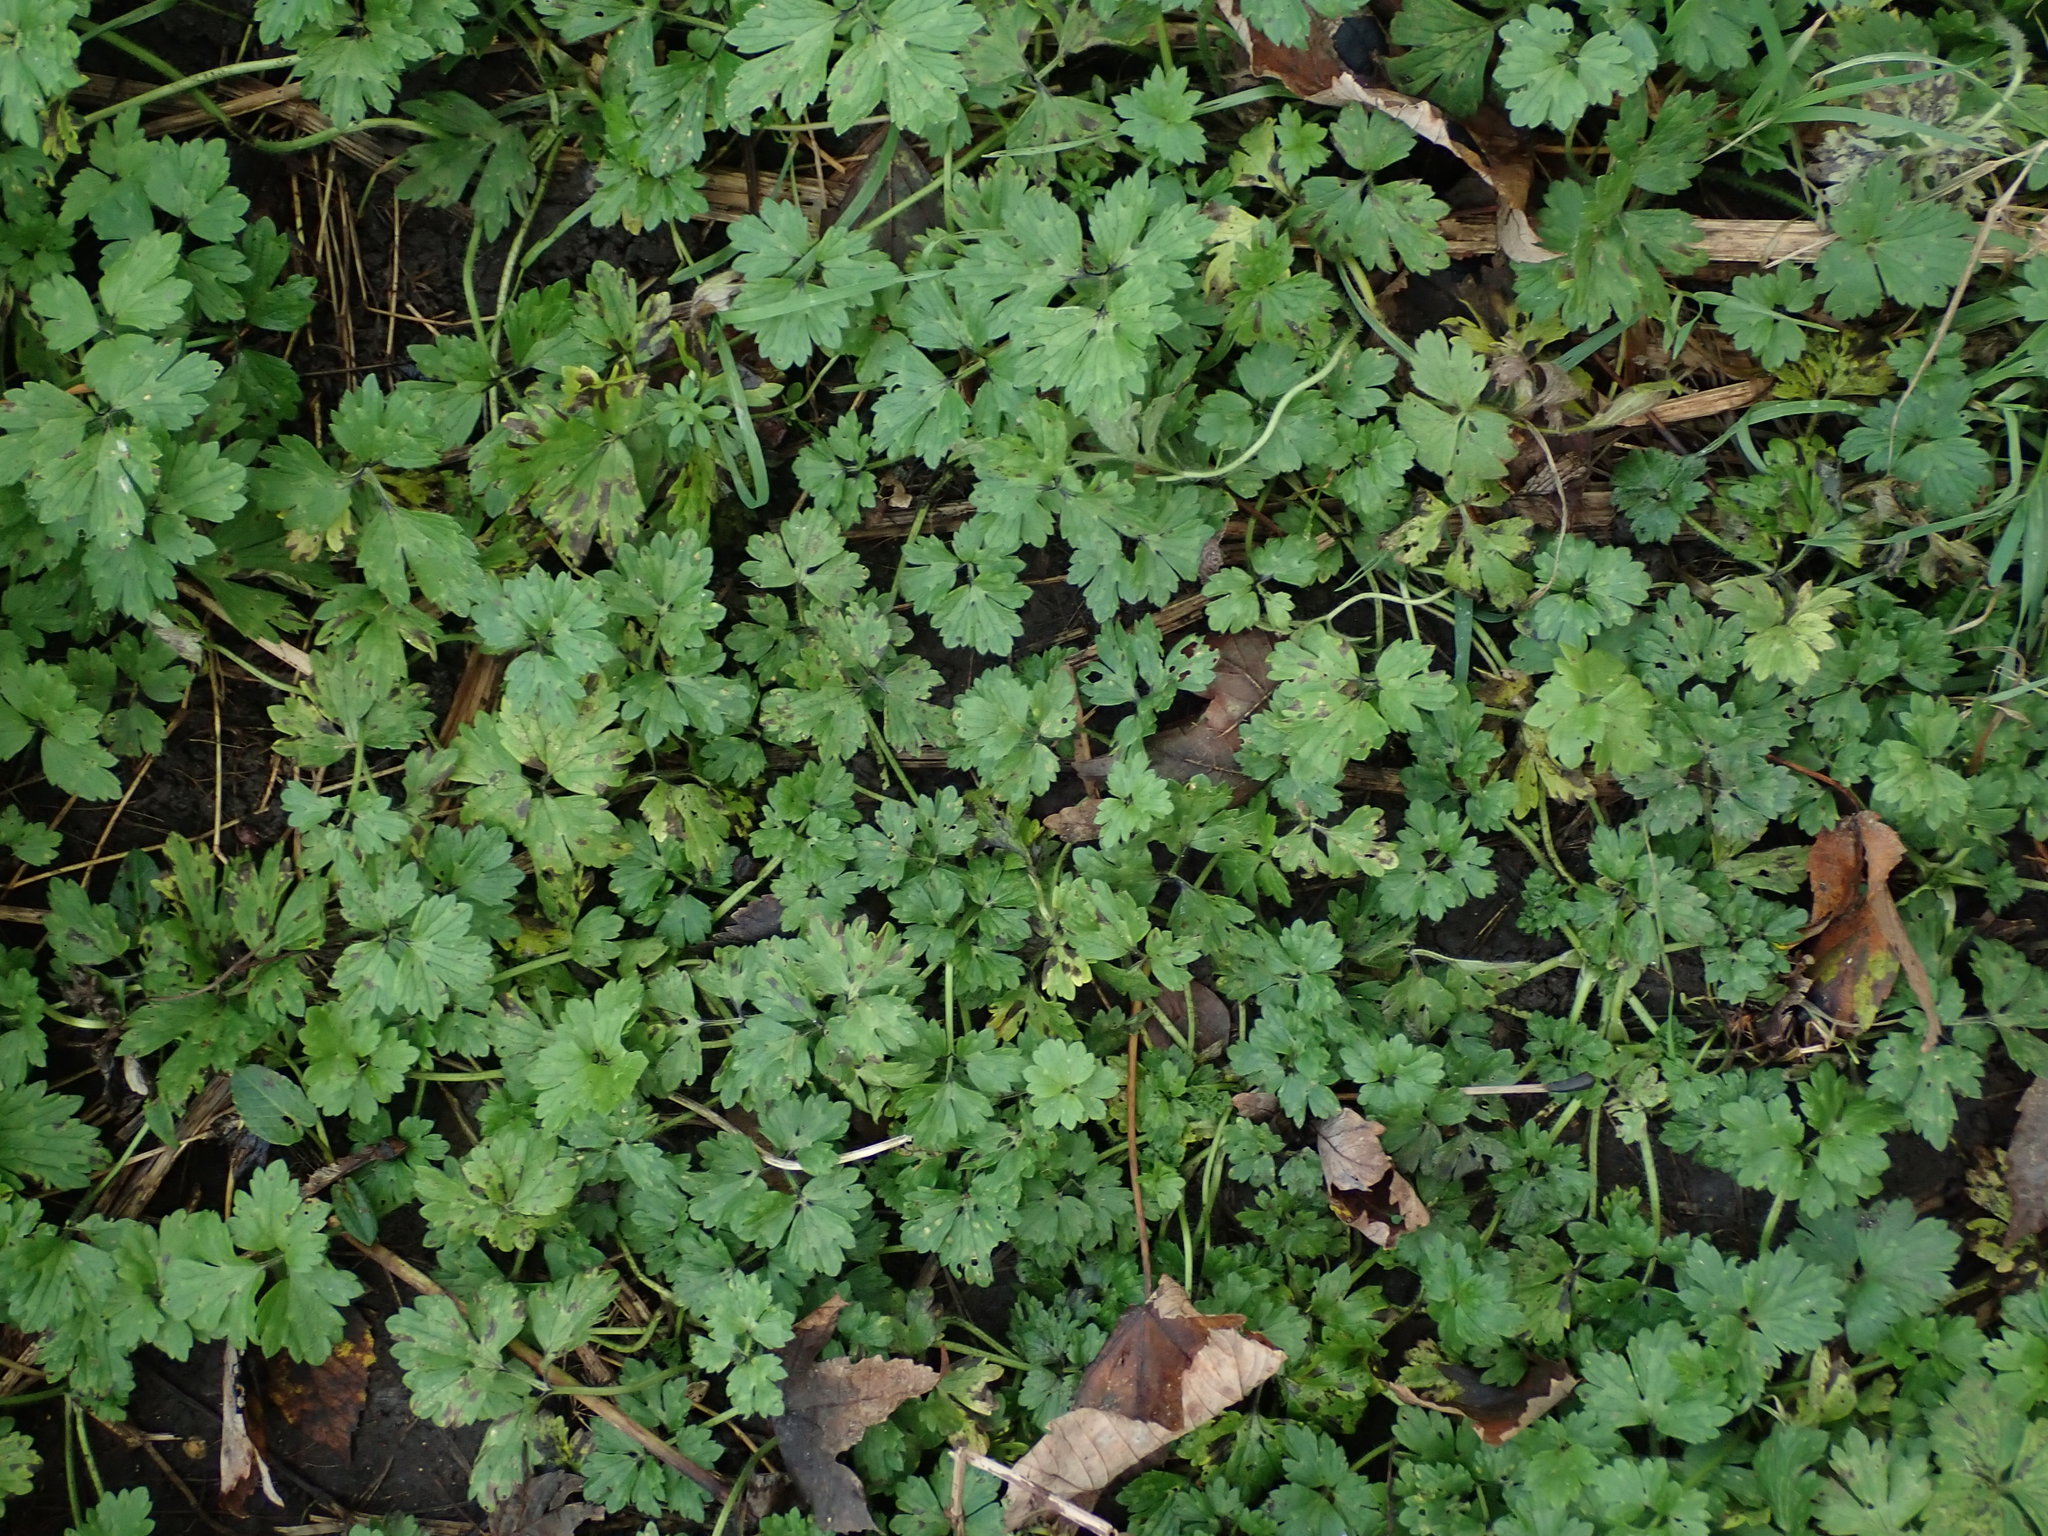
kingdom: Plantae
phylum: Tracheophyta
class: Magnoliopsida
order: Ranunculales
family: Ranunculaceae
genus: Ranunculus
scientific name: Ranunculus repens
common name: Creeping buttercup
